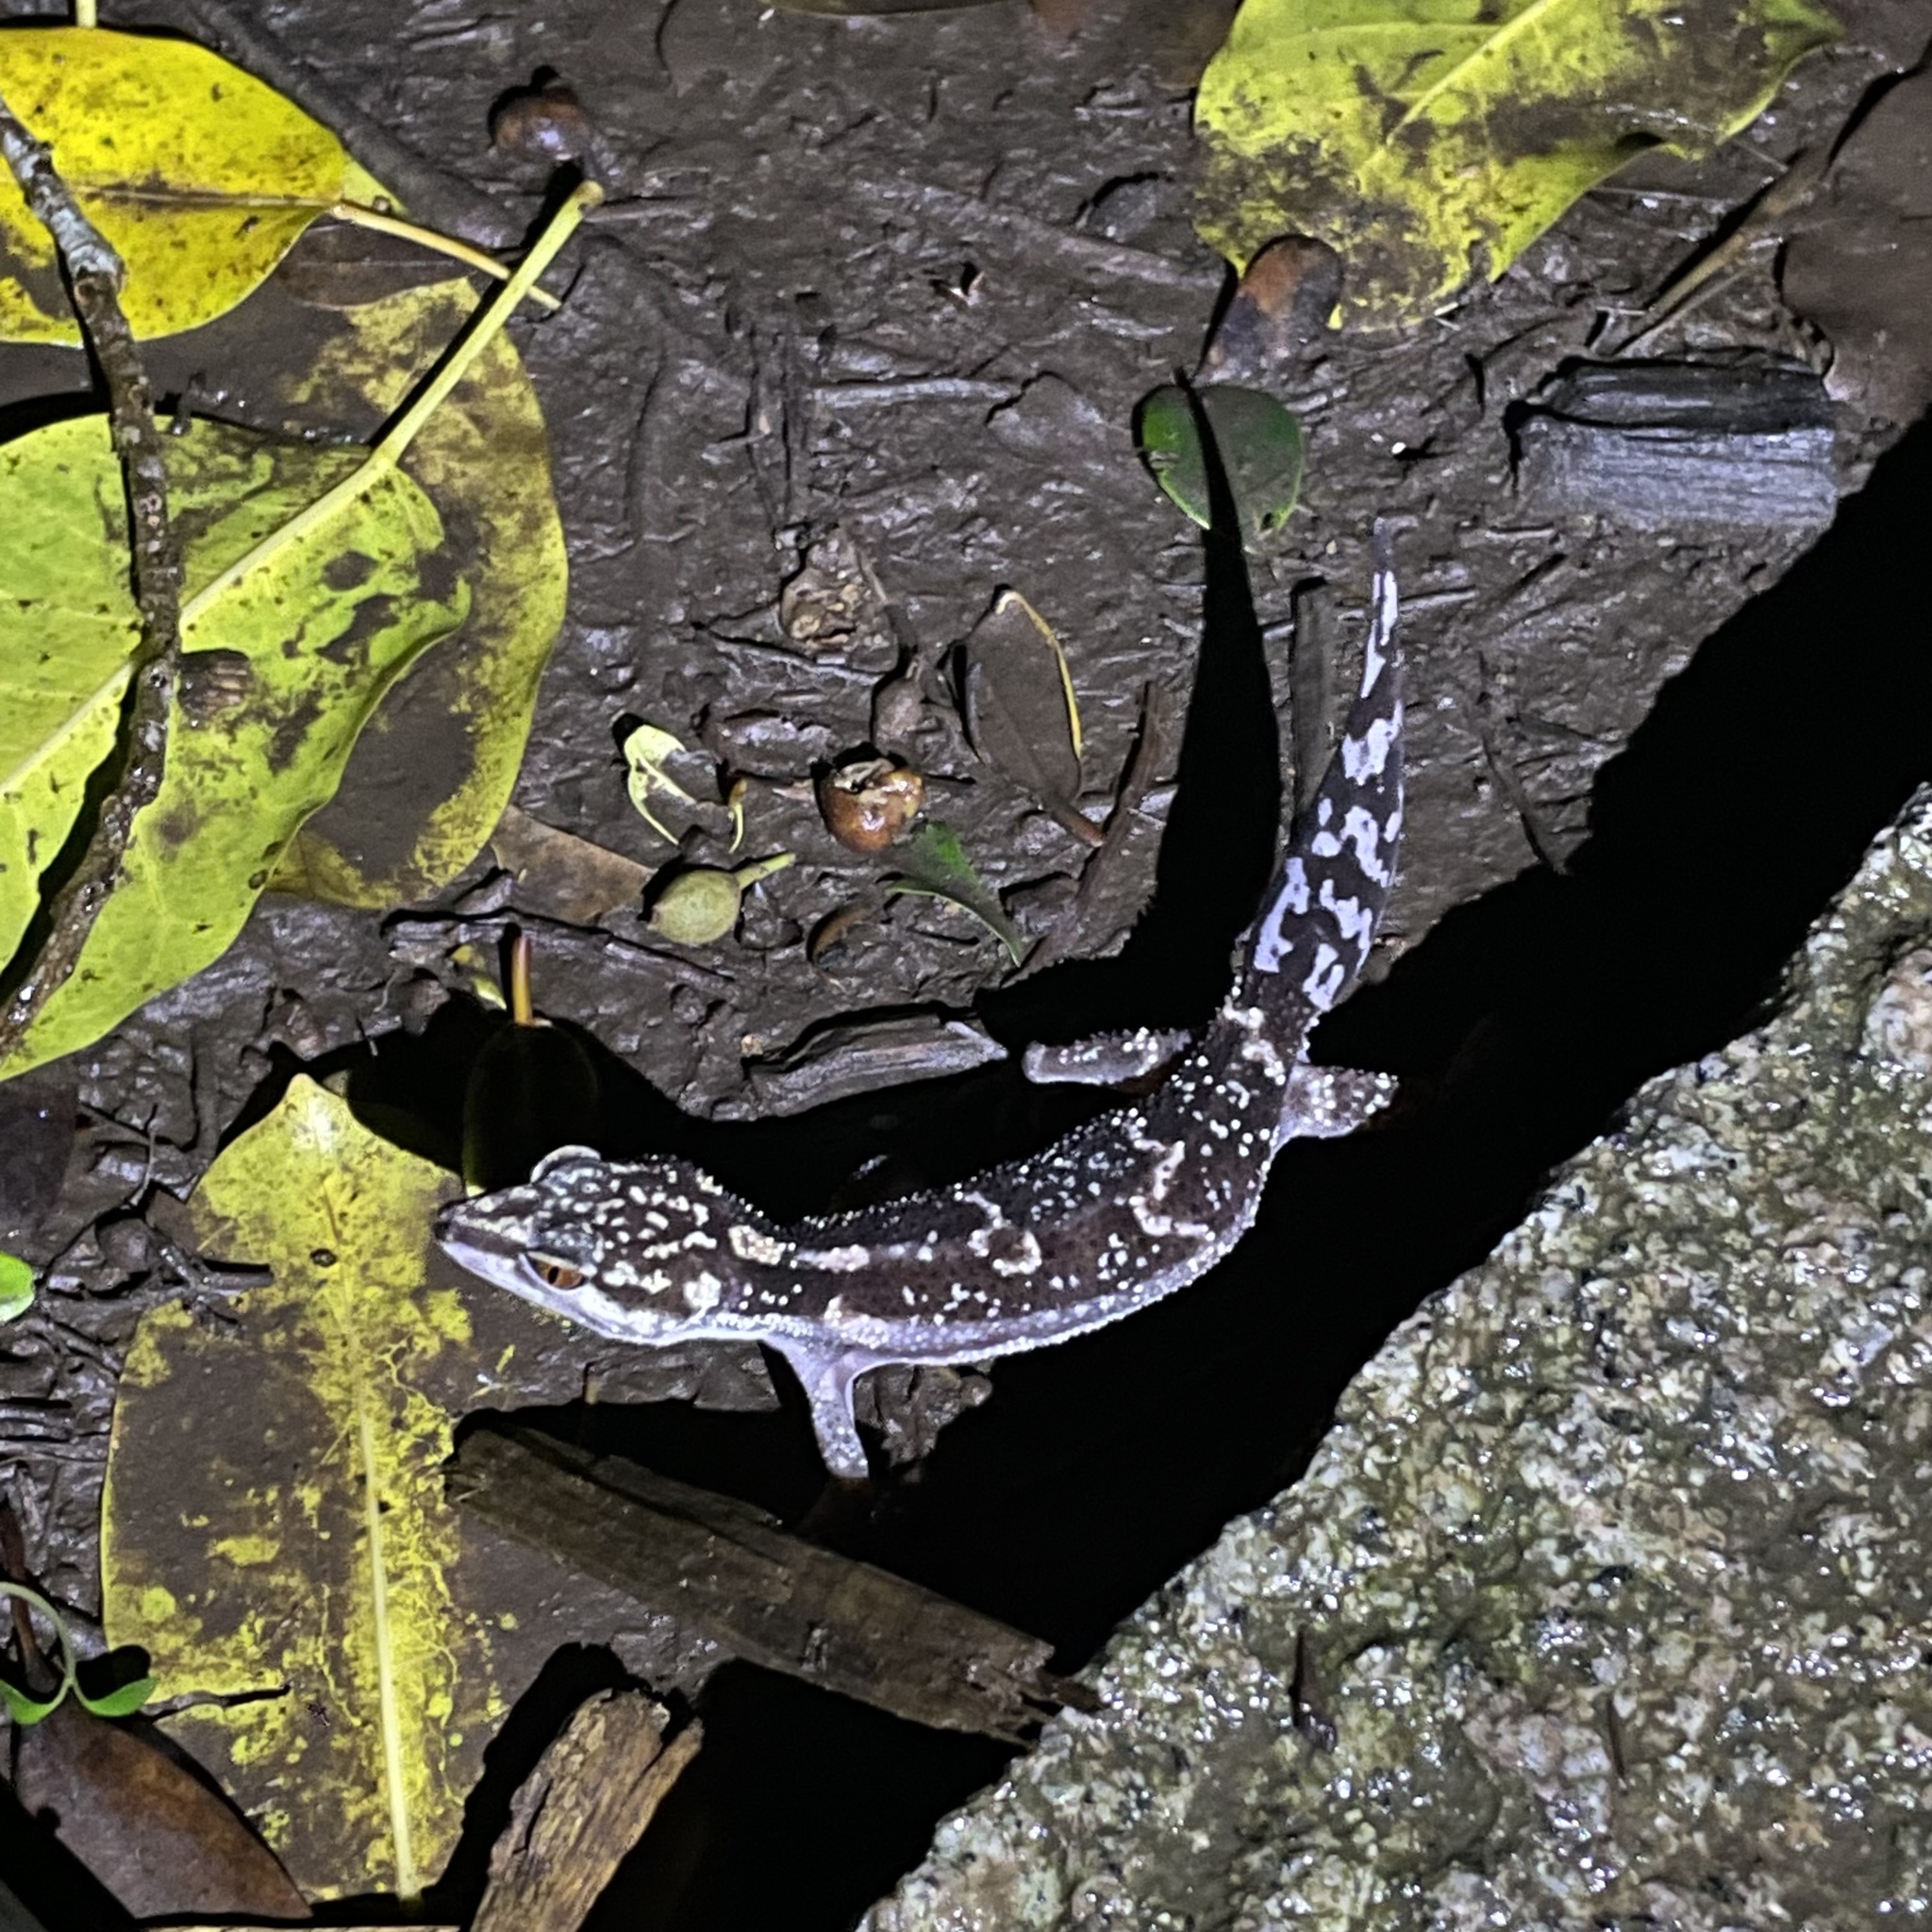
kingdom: Animalia
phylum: Chordata
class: Squamata
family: Eublepharidae
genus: Goniurosaurus
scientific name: Goniurosaurus kuroiwae
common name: Tokashiki gecko
